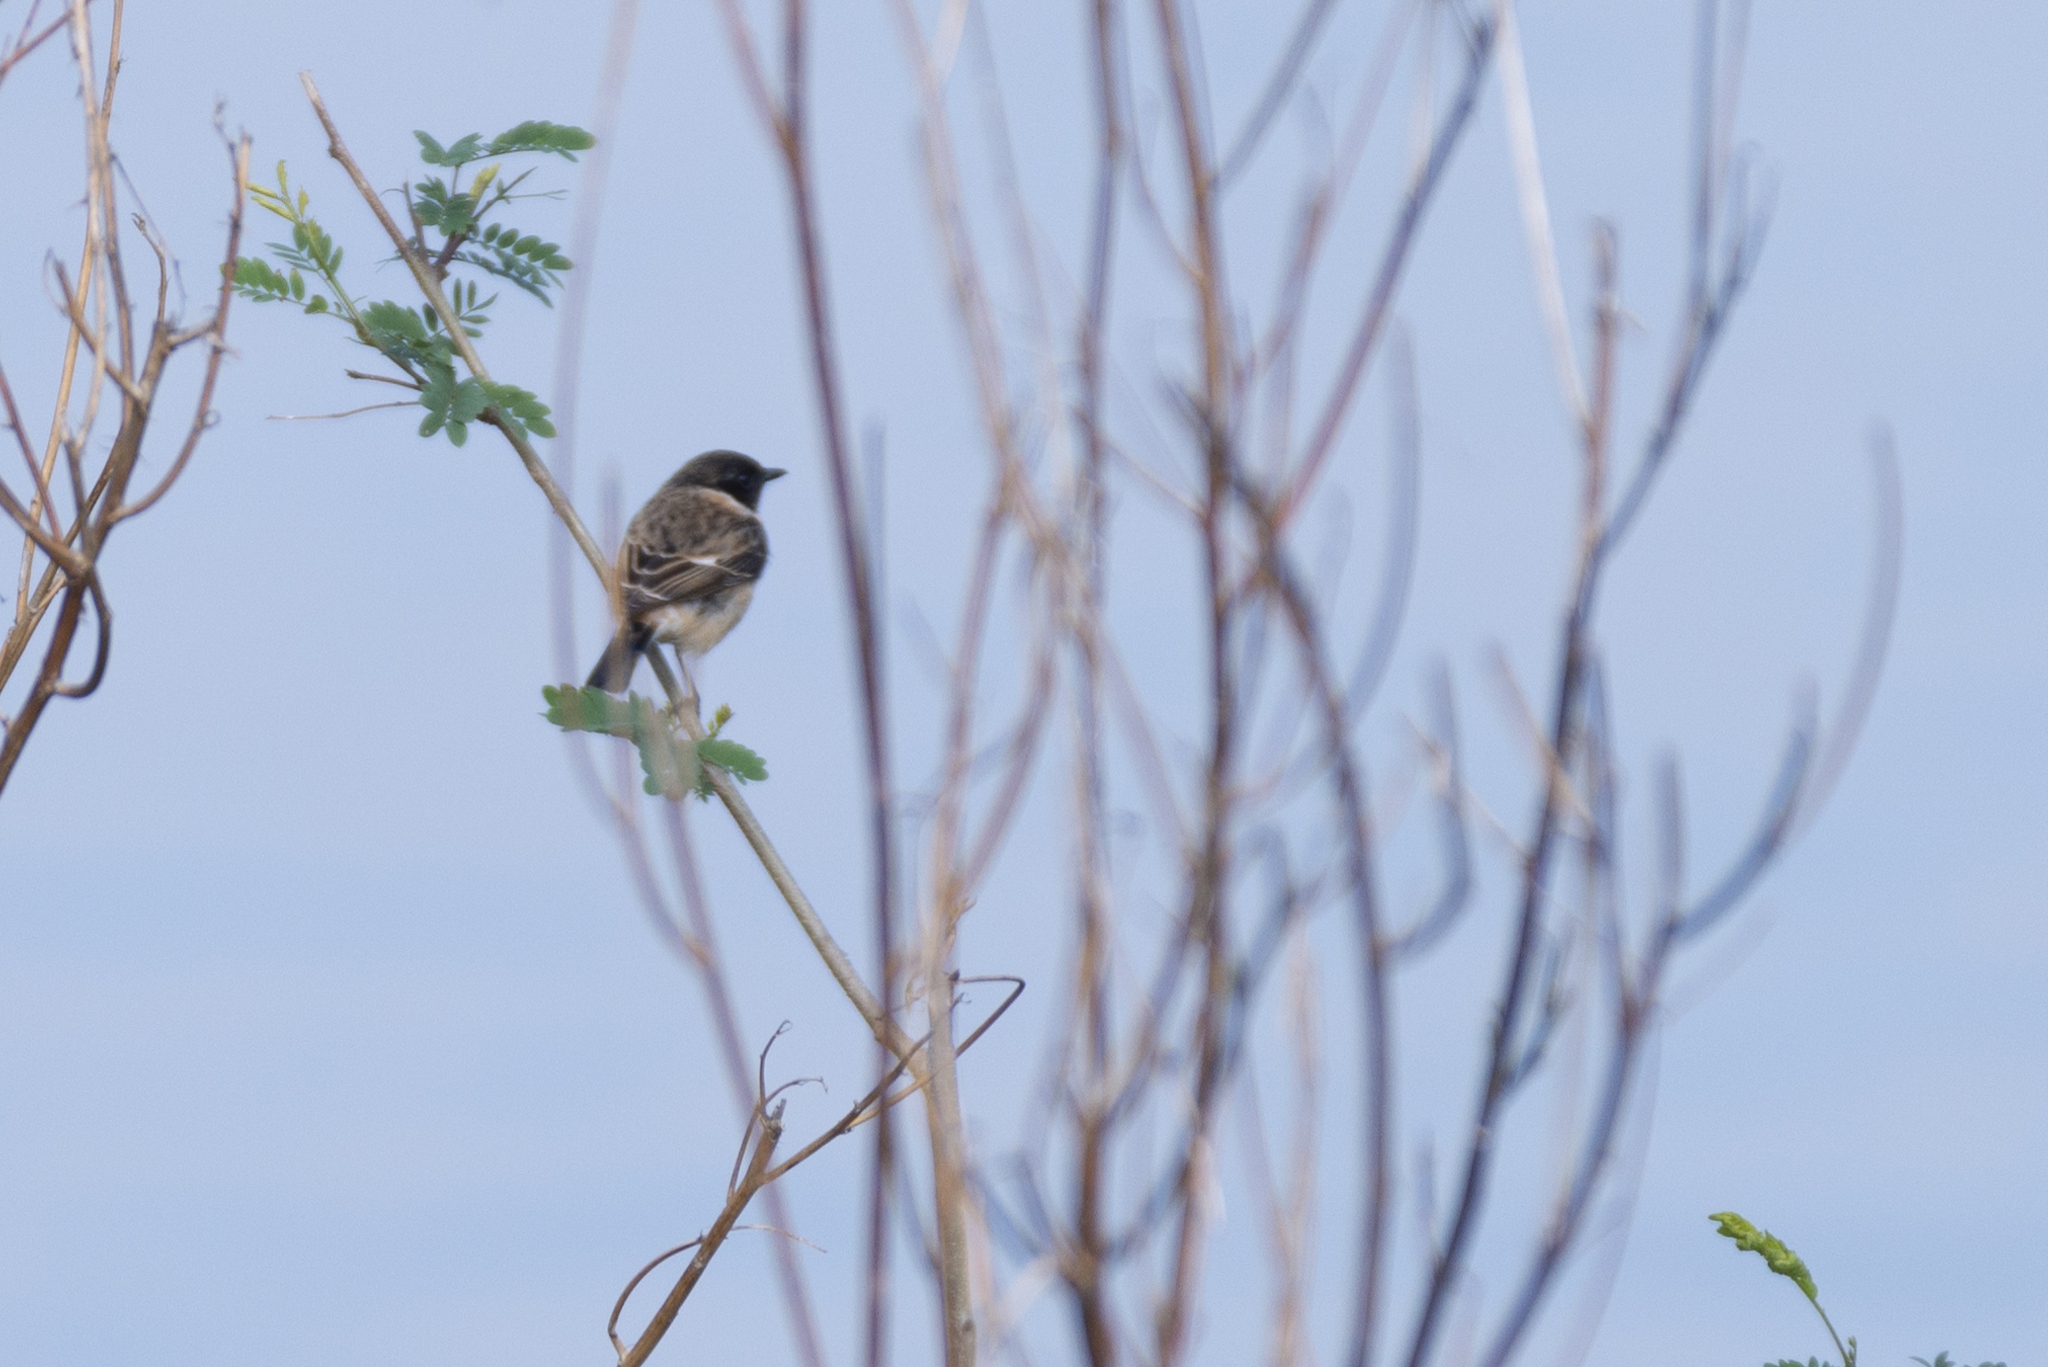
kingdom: Animalia
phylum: Chordata
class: Aves
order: Passeriformes
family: Muscicapidae
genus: Saxicola
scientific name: Saxicola maurus
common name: Siberian stonechat
